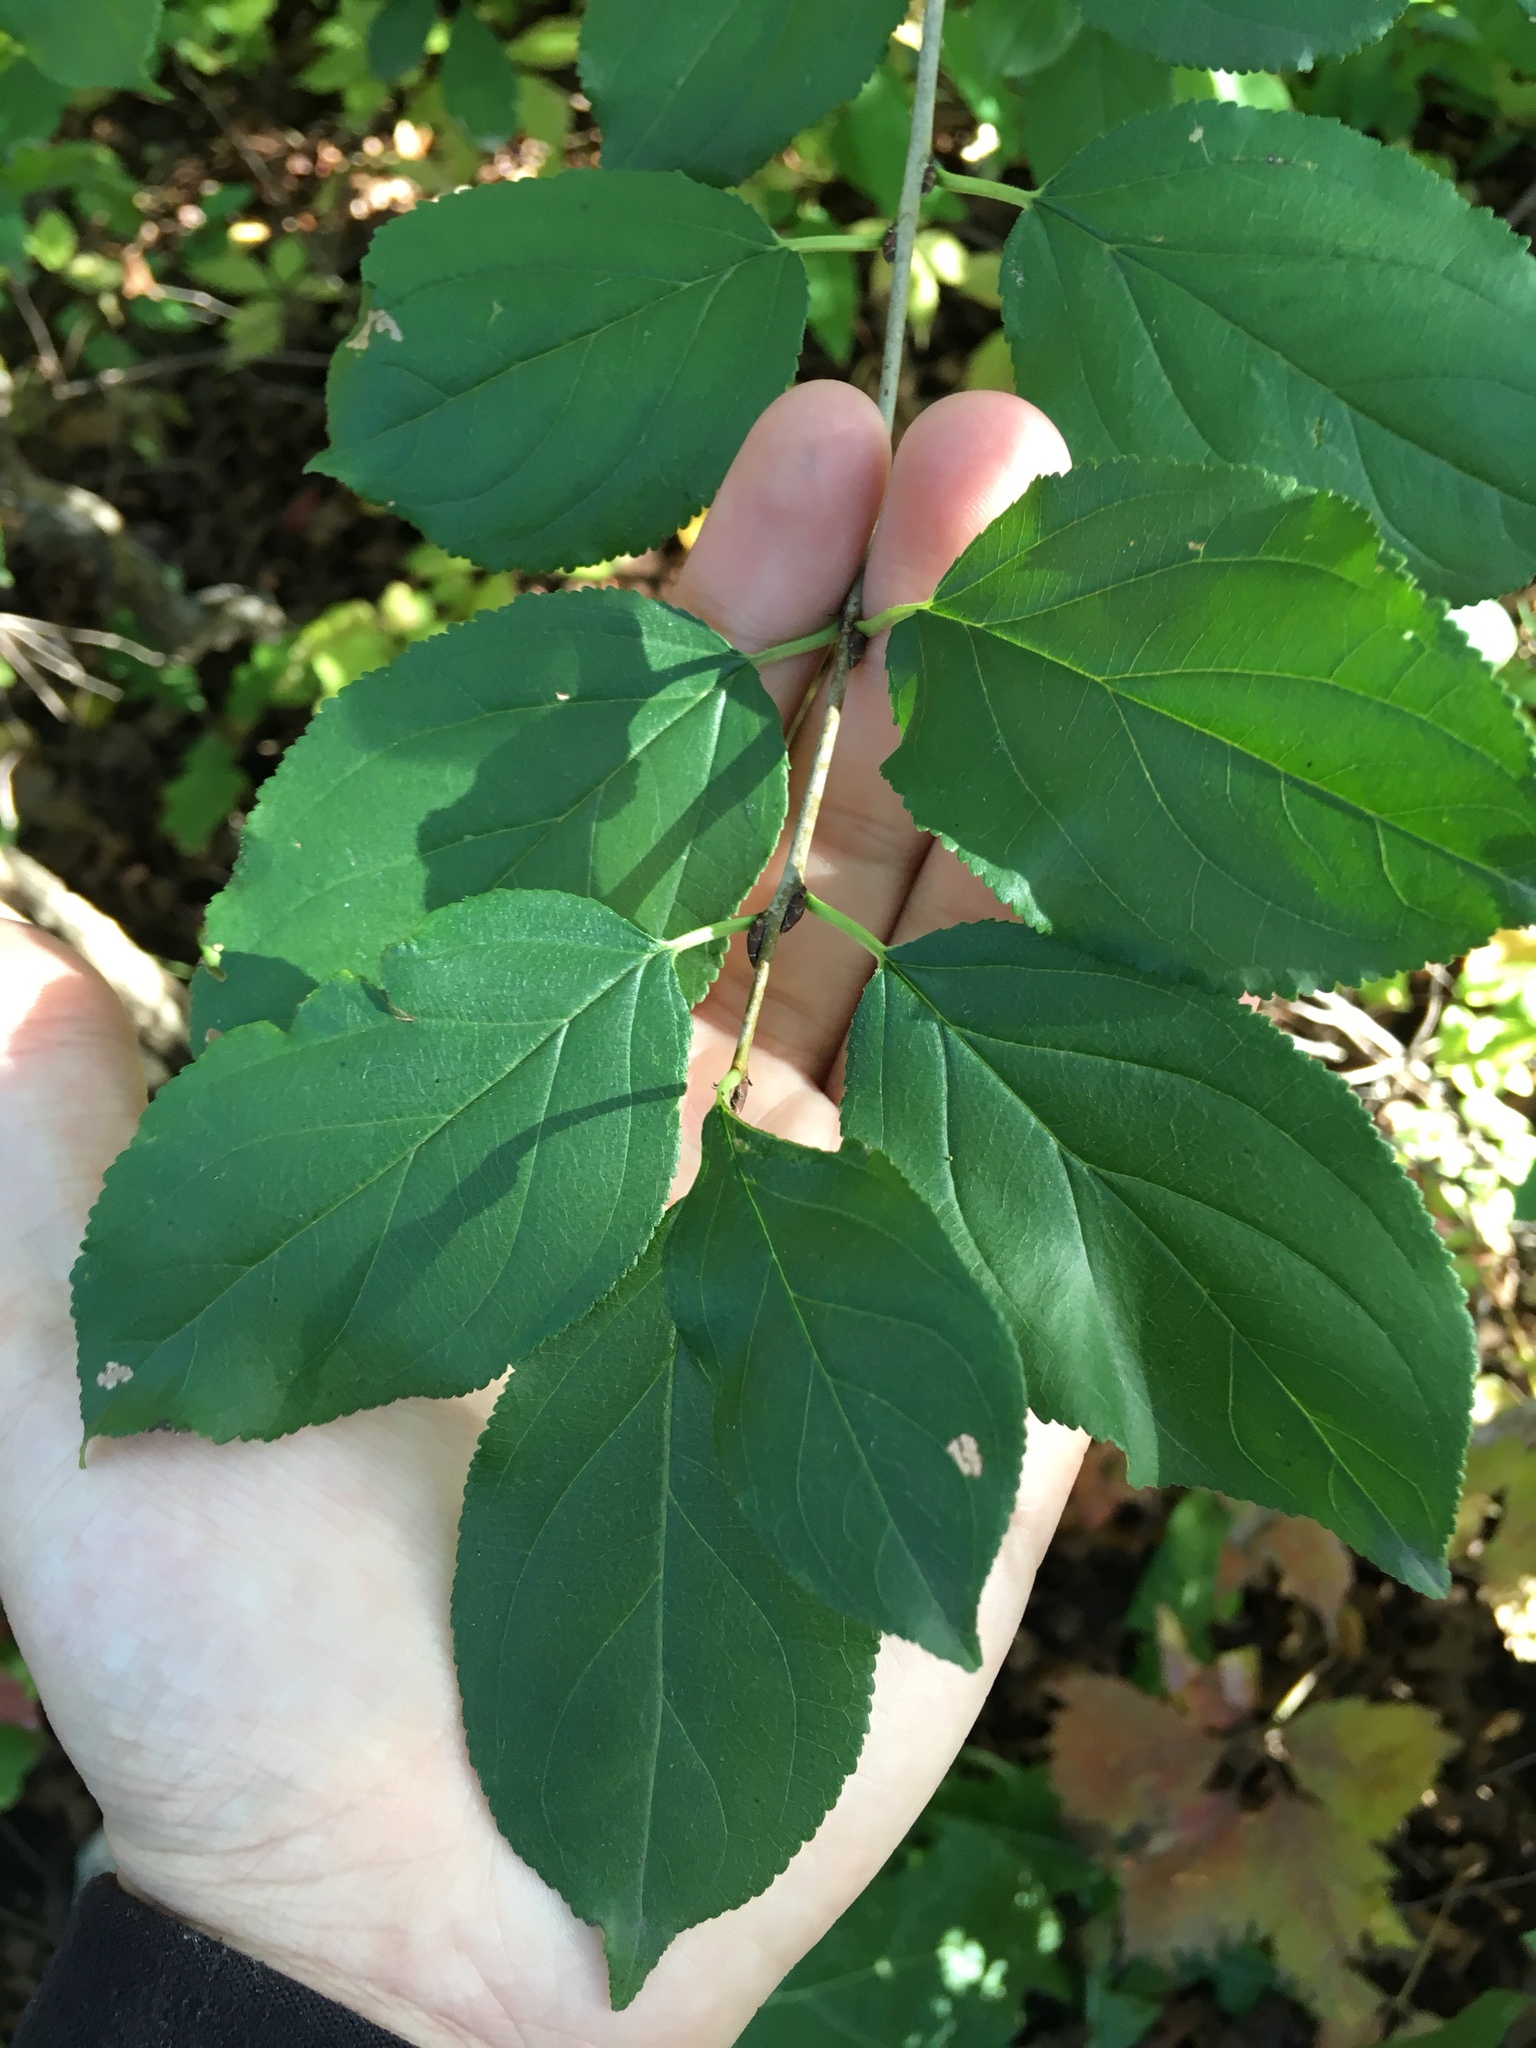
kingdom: Plantae
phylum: Tracheophyta
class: Magnoliopsida
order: Rosales
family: Rhamnaceae
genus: Rhamnus
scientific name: Rhamnus cathartica
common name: Common buckthorn
